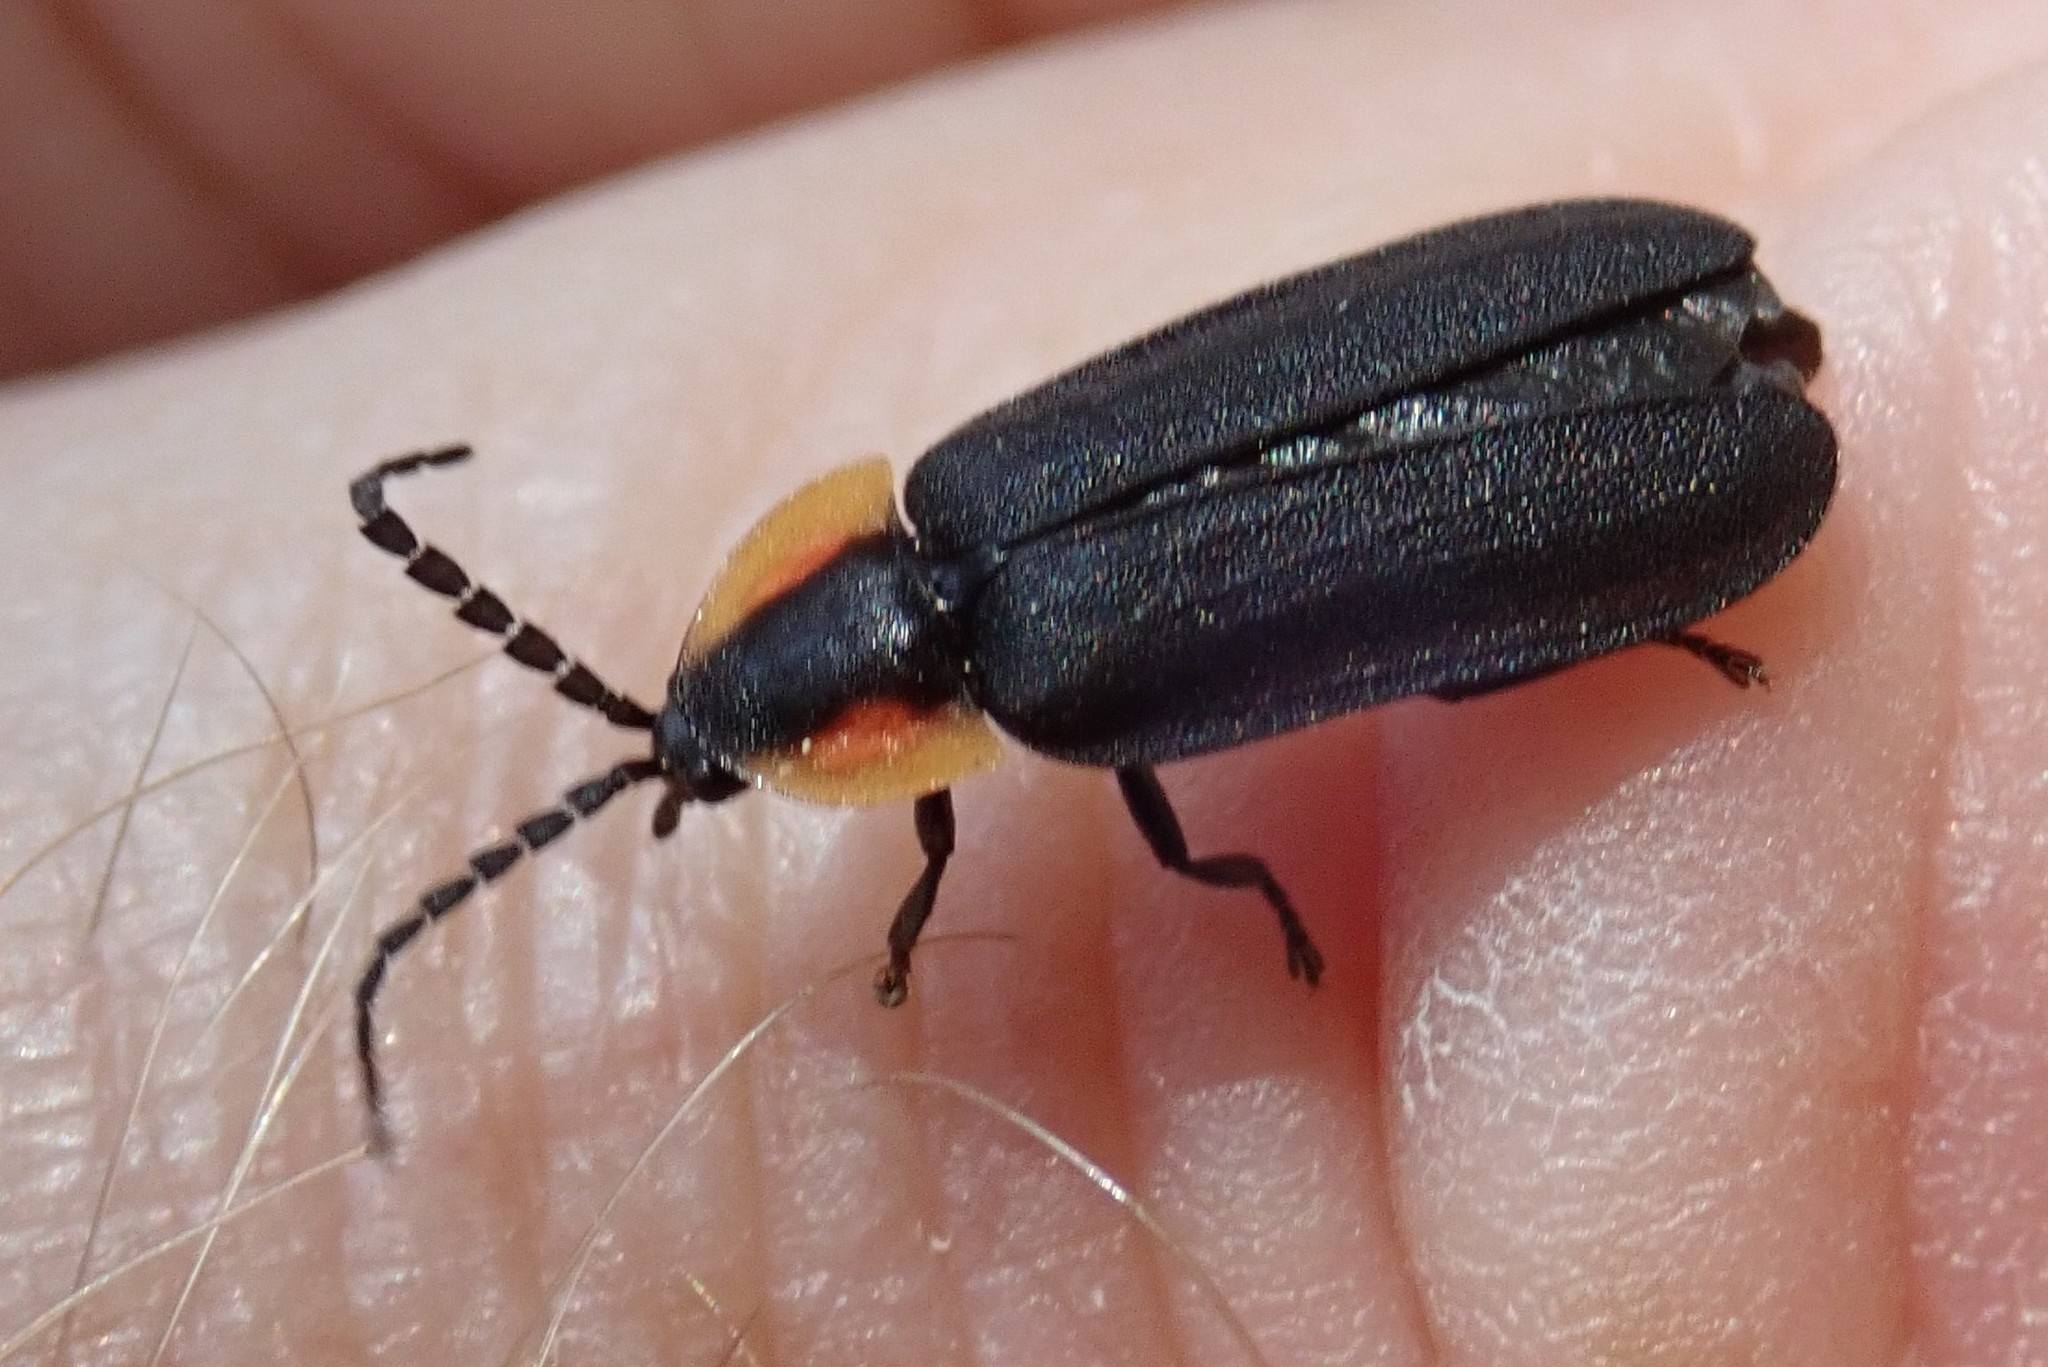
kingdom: Animalia
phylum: Arthropoda
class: Insecta
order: Coleoptera
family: Lampyridae
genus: Lucidota
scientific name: Lucidota atra
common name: Black firefly
